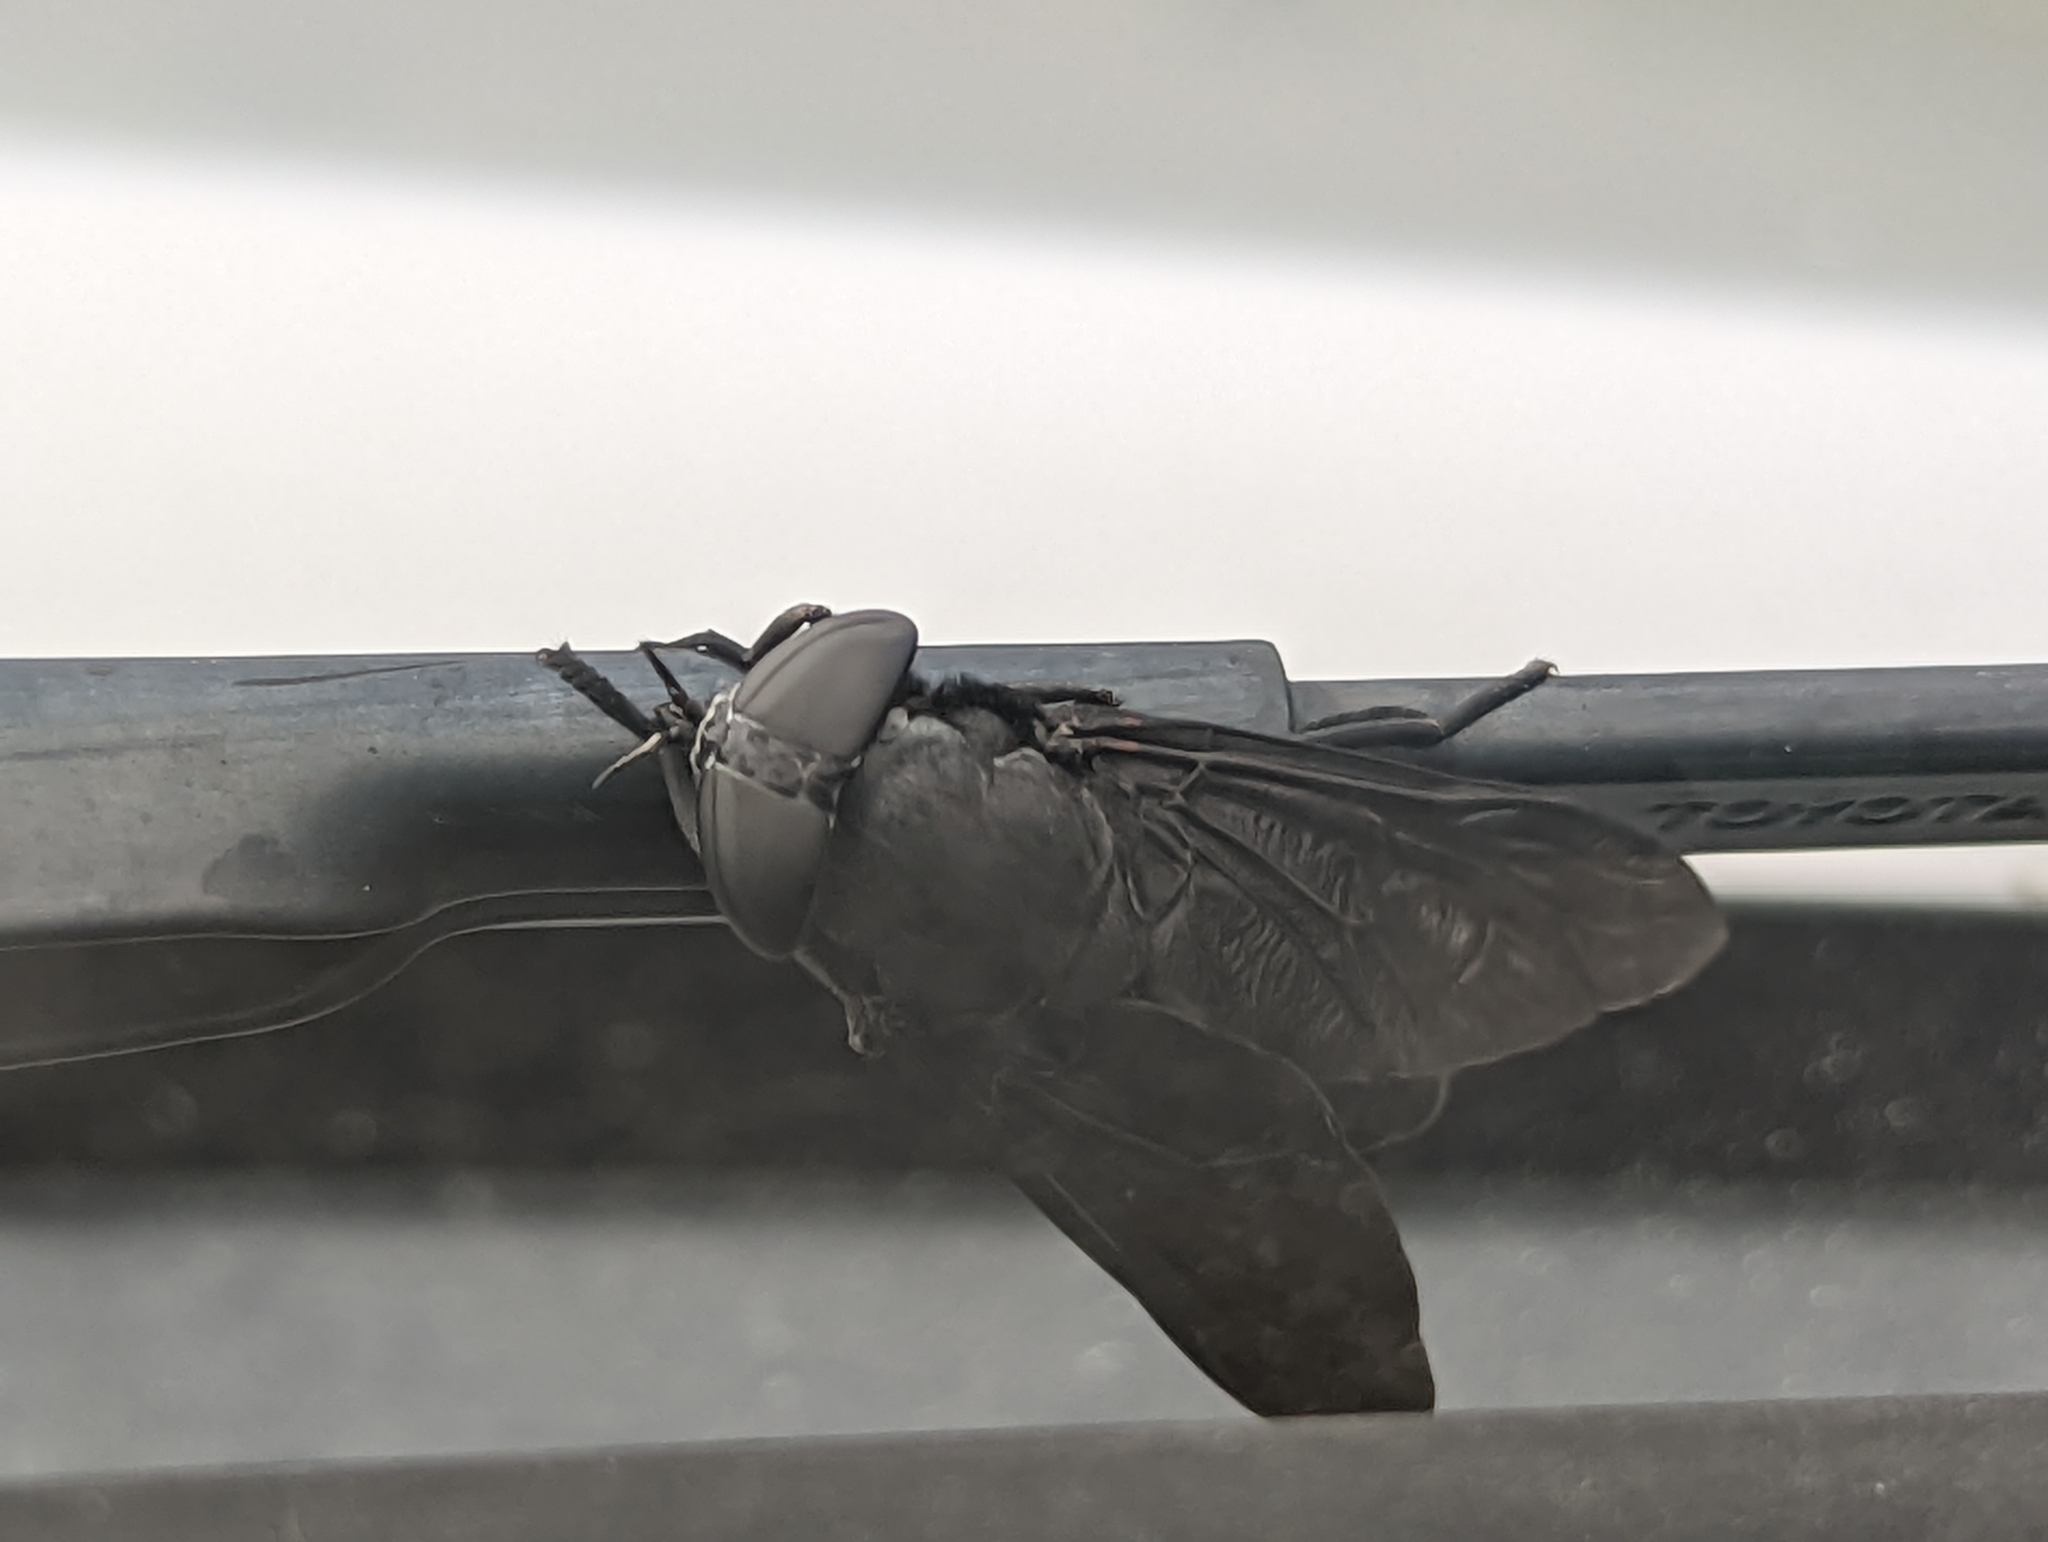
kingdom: Animalia
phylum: Arthropoda
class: Insecta
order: Diptera
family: Tabanidae
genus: Tabanus
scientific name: Tabanus atratus
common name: Black horse fly
